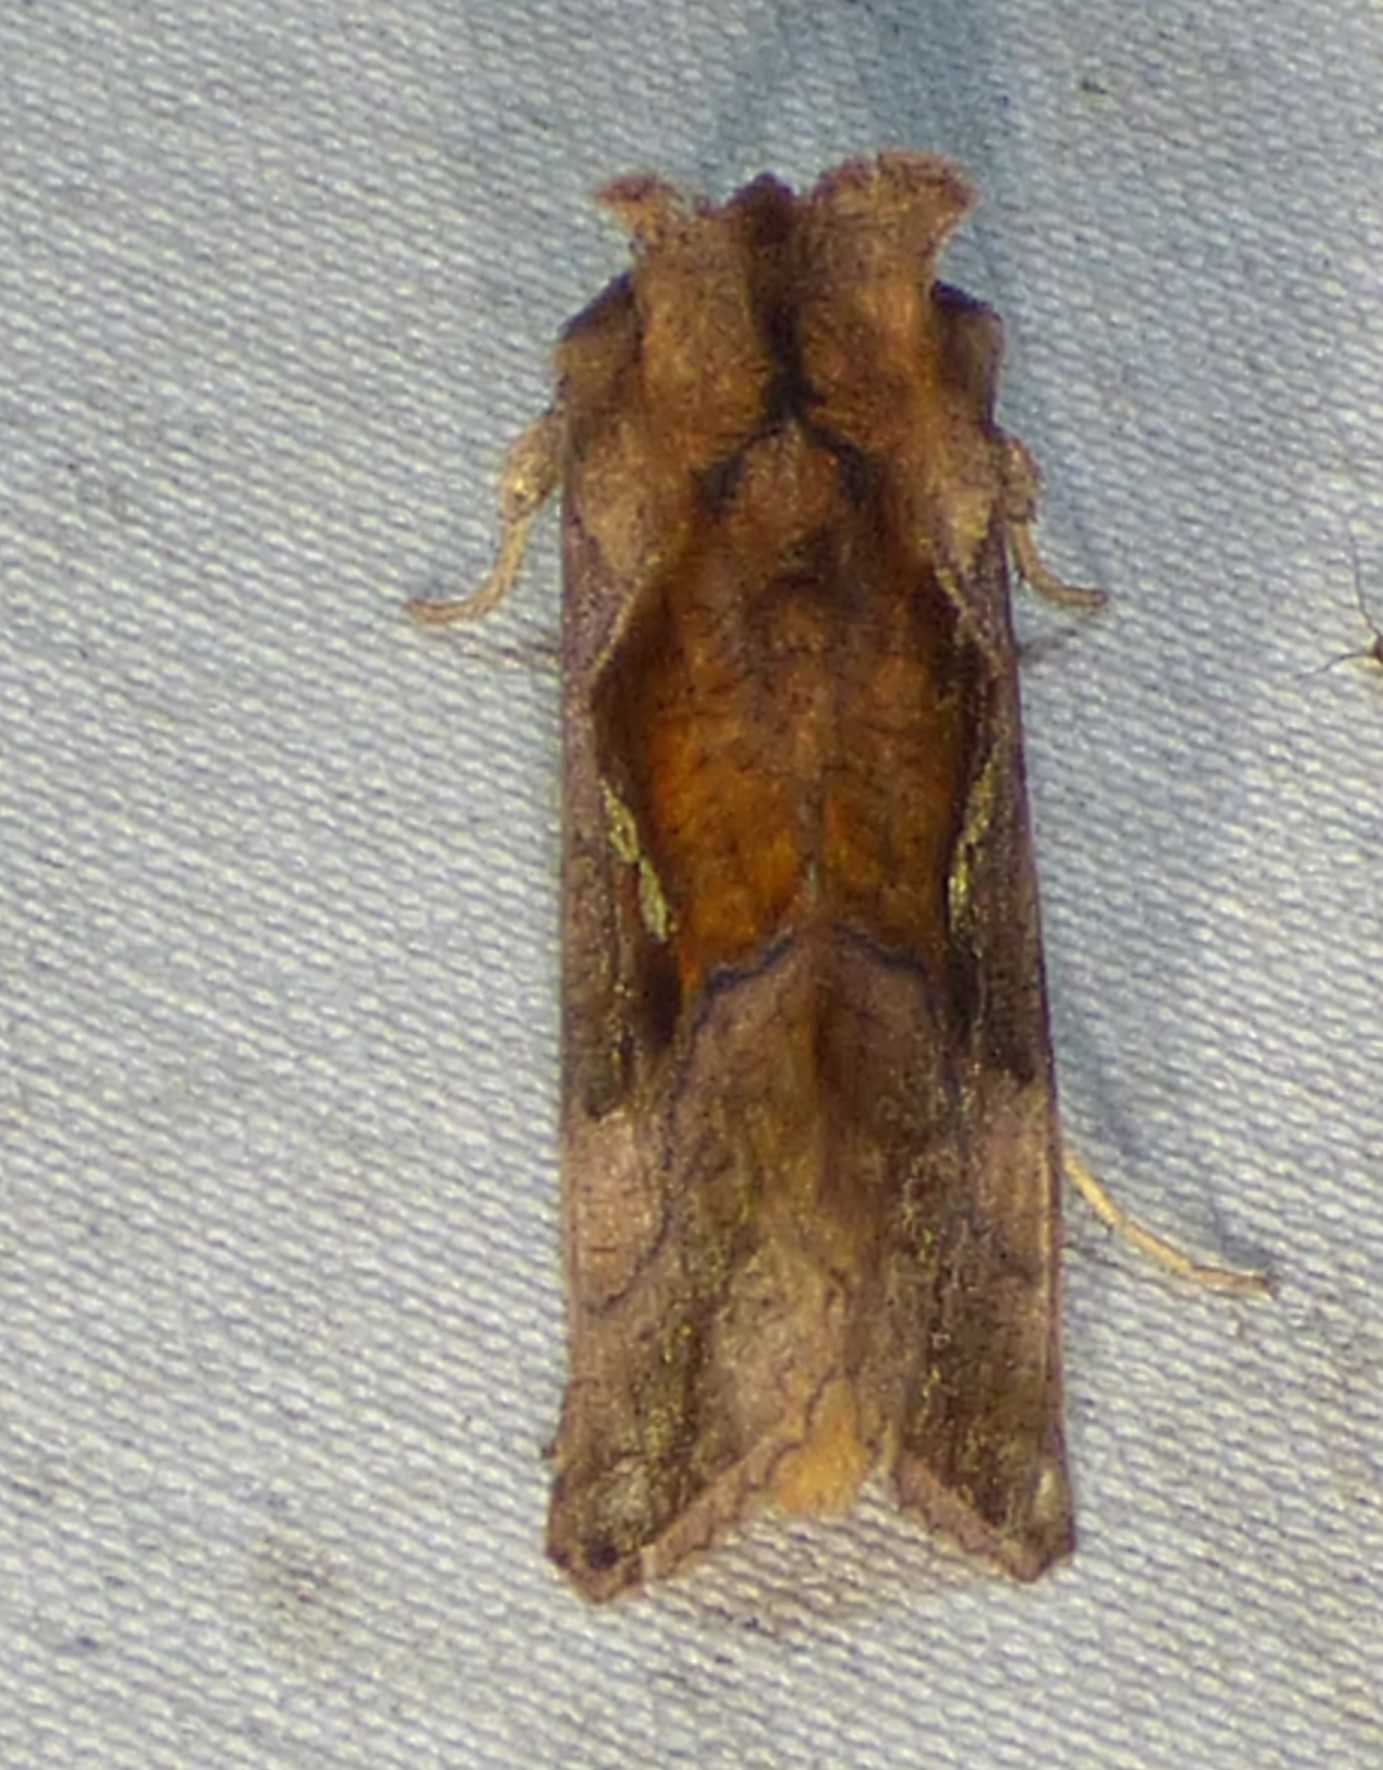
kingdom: Animalia
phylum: Arthropoda
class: Insecta
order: Lepidoptera
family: Noctuidae
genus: Enigmogramma
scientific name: Enigmogramma basigera
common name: Pink-washed looper moth
